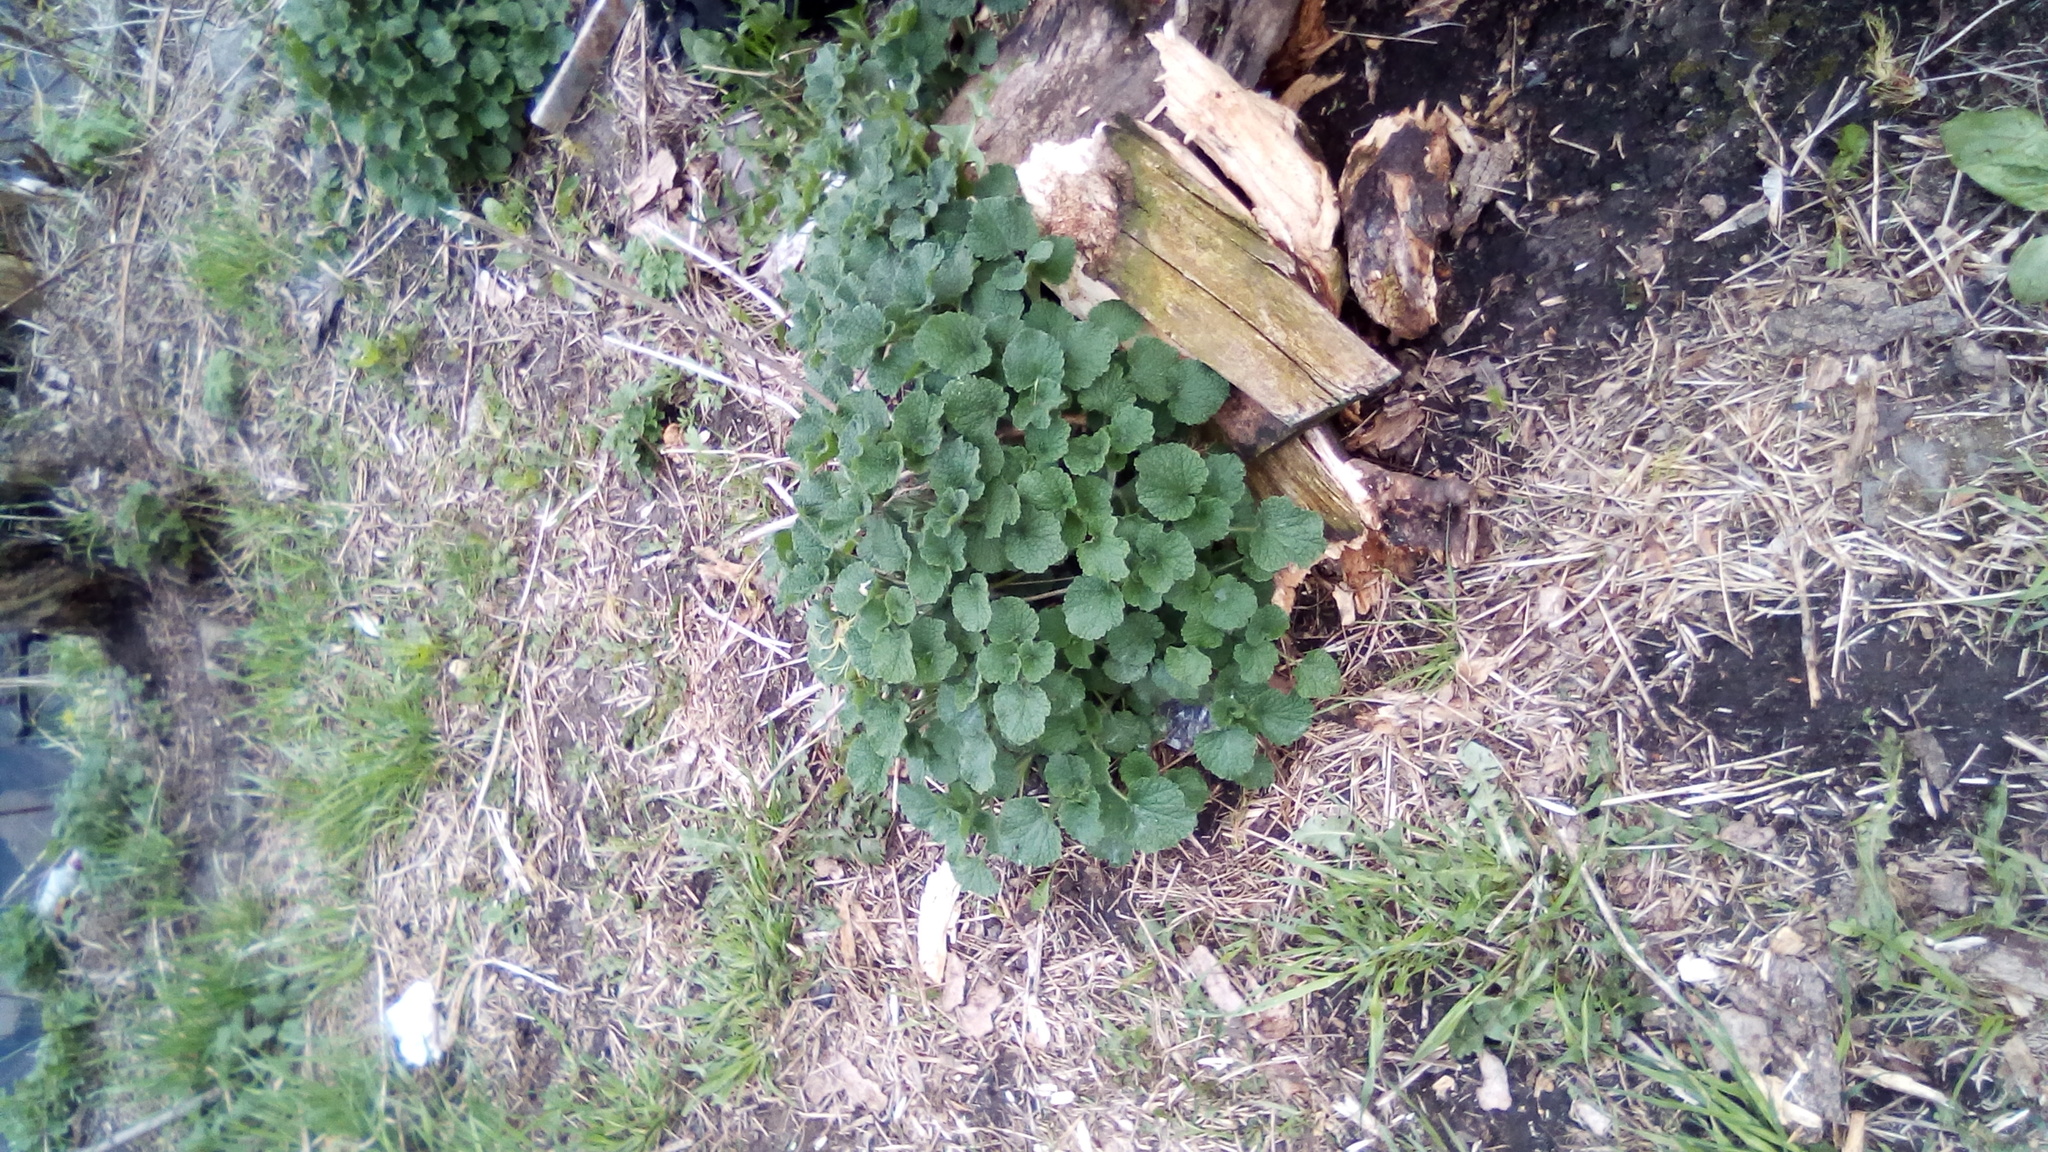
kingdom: Plantae
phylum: Tracheophyta
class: Magnoliopsida
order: Lamiales
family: Lamiaceae
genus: Ballota
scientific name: Ballota nigra
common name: Black horehound
